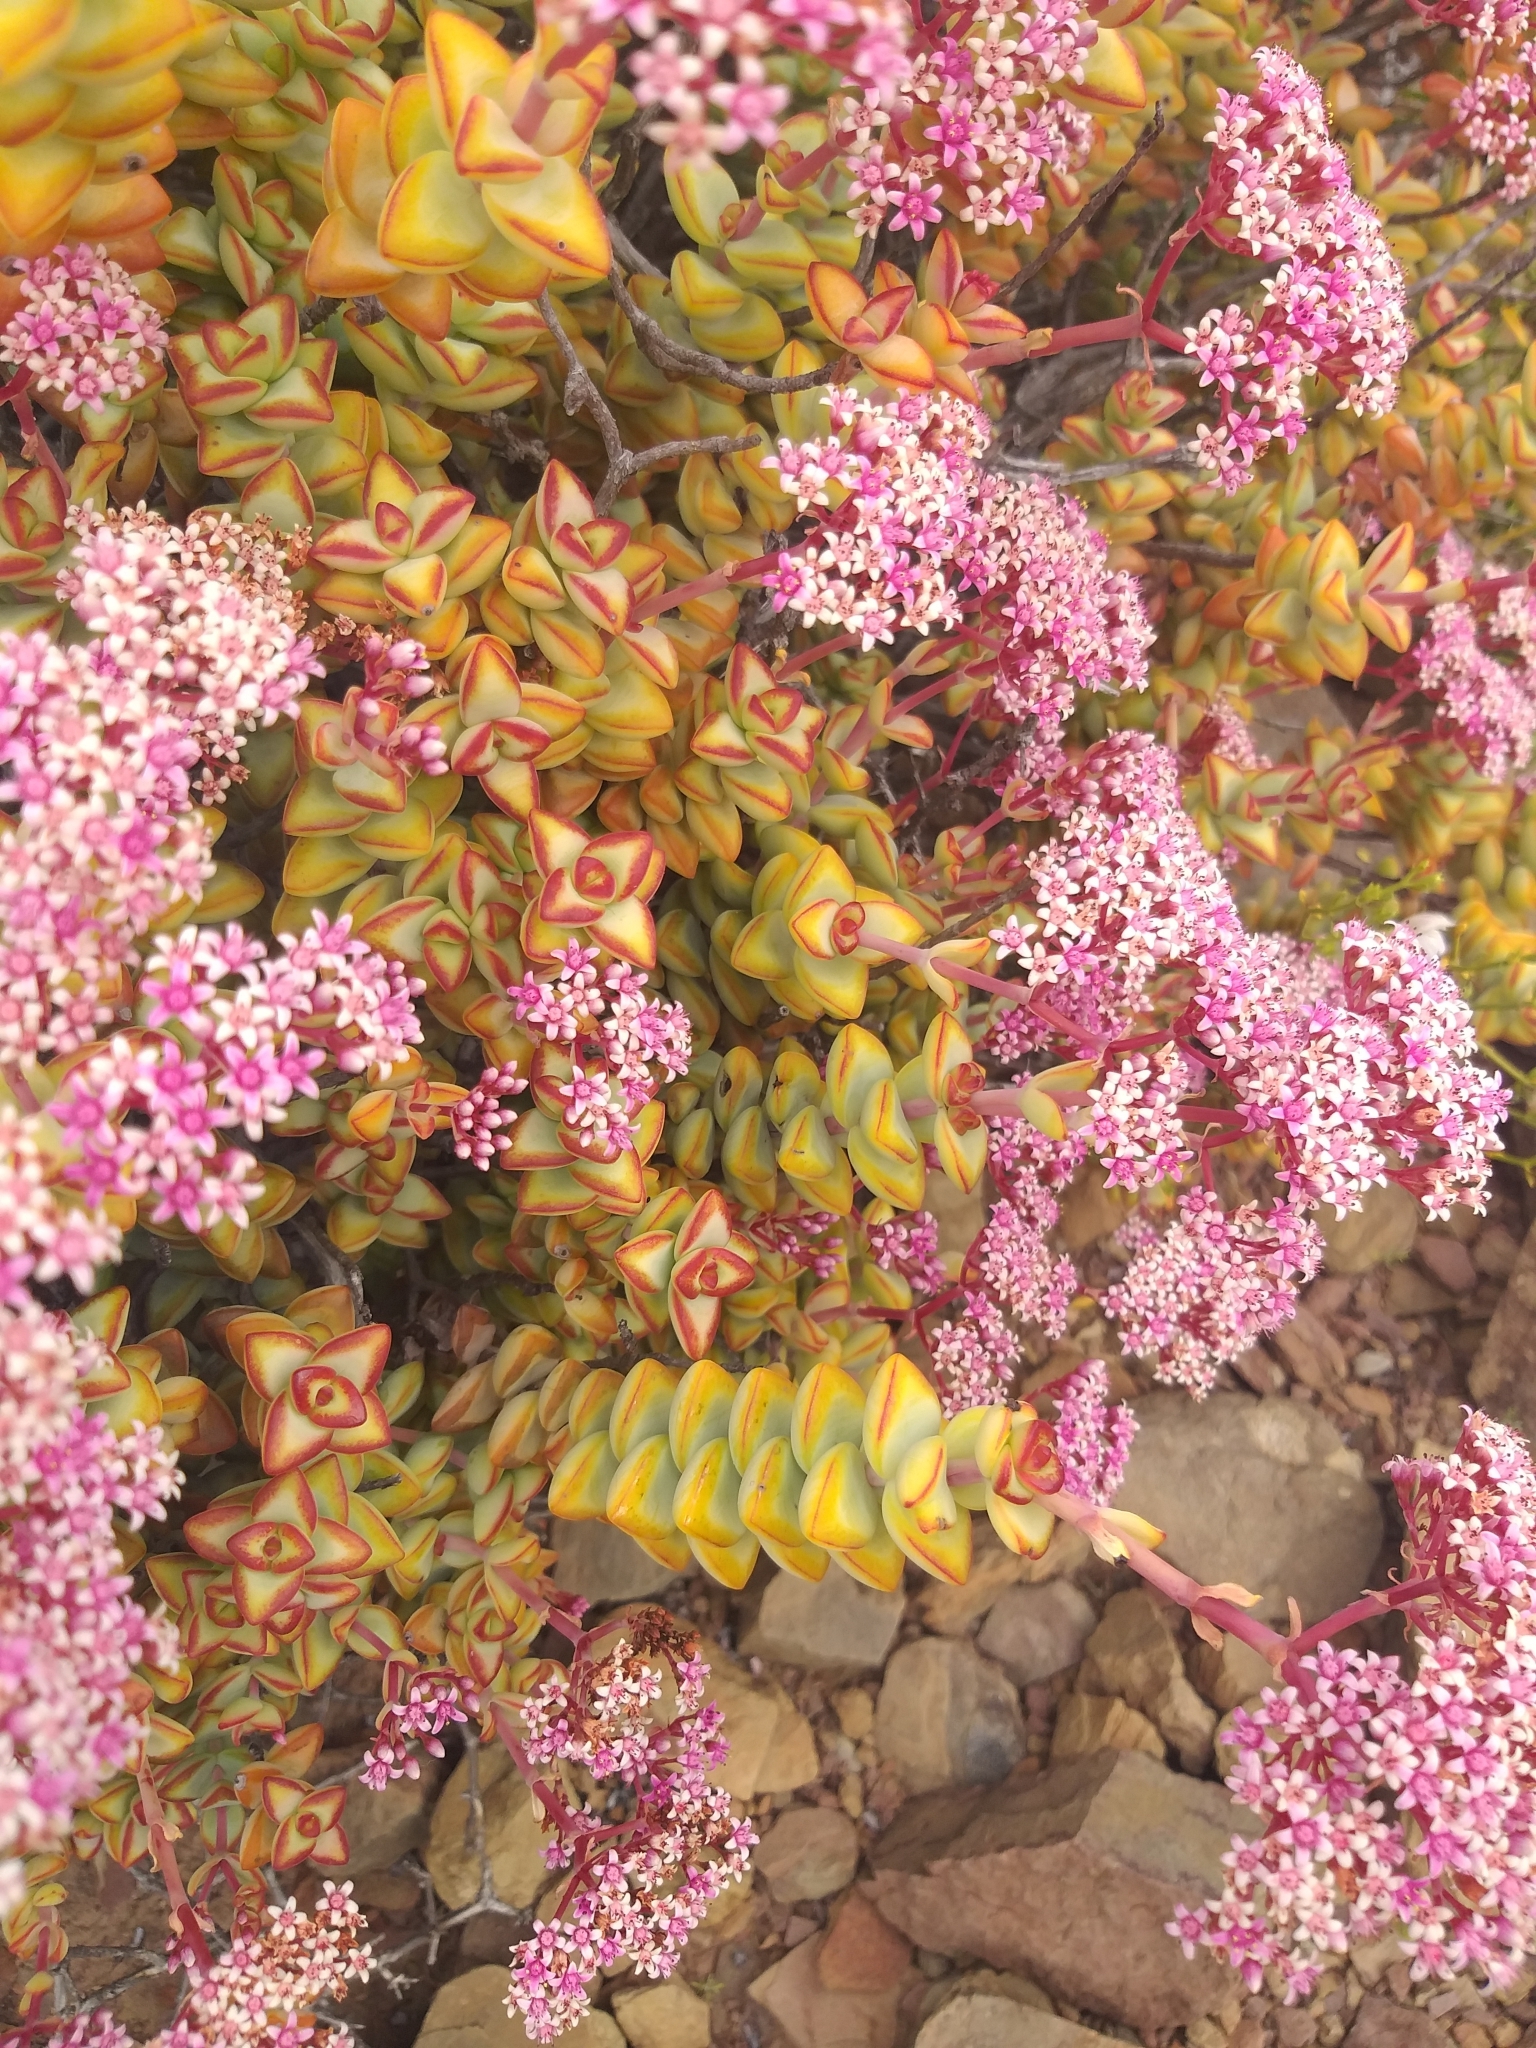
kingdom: Plantae
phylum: Tracheophyta
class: Magnoliopsida
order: Saxifragales
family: Crassulaceae
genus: Crassula
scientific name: Crassula rupestris
